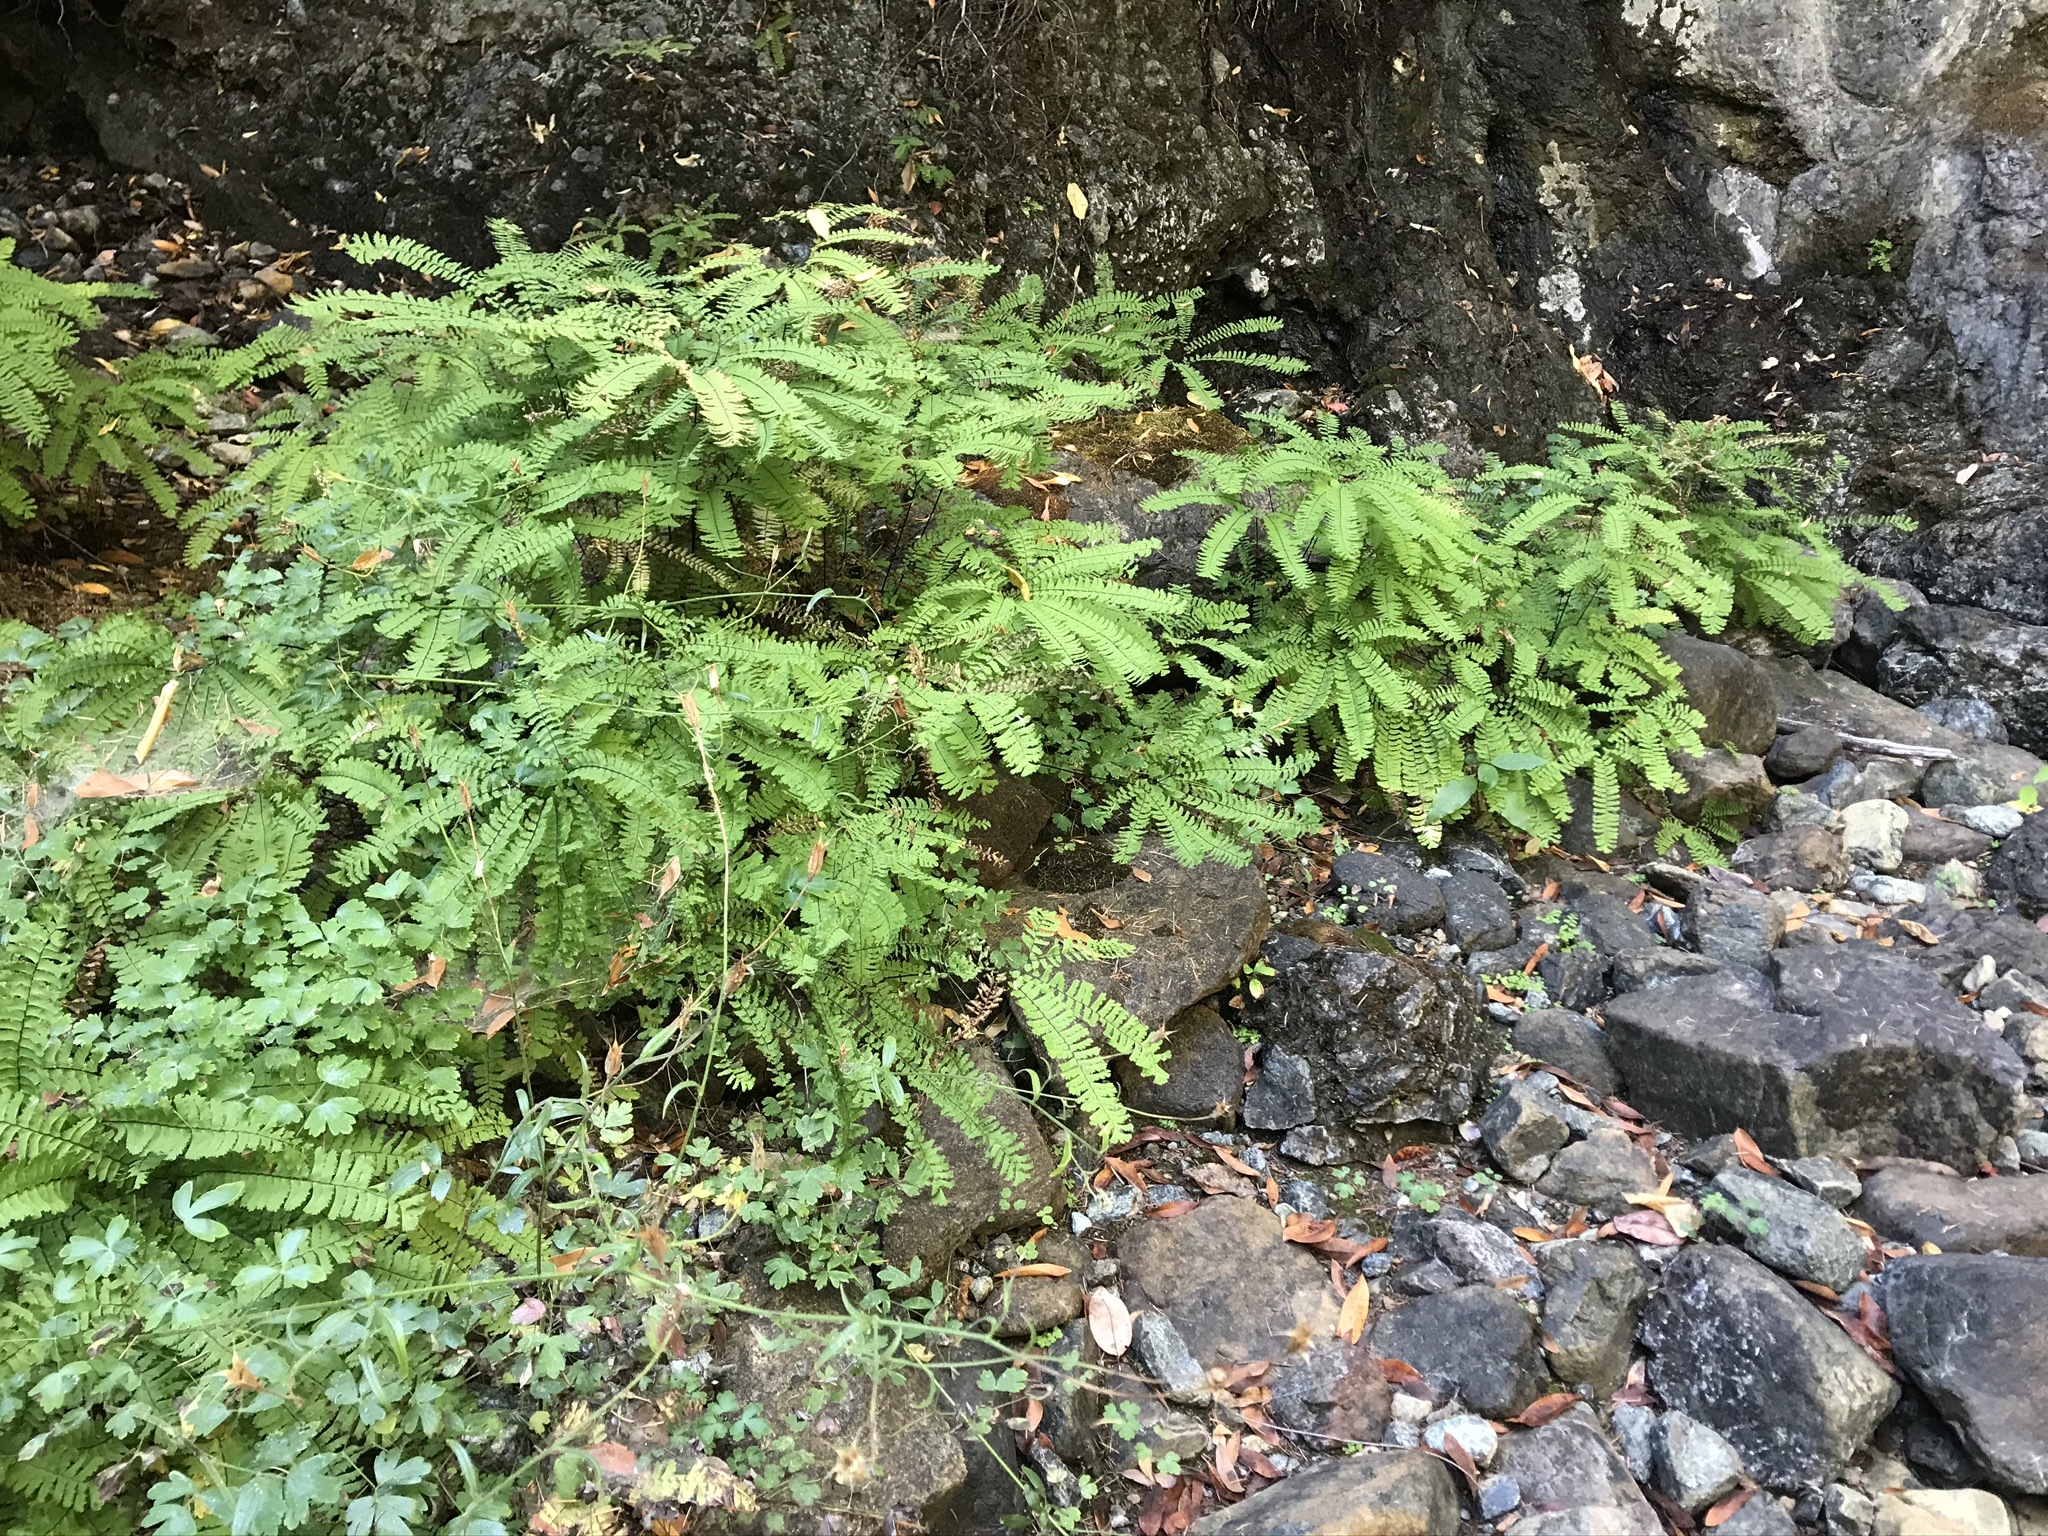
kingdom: Plantae
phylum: Tracheophyta
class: Polypodiopsida
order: Polypodiales
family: Pteridaceae
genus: Adiantum
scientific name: Adiantum aleuticum
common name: Aleutian maidenhair fern
